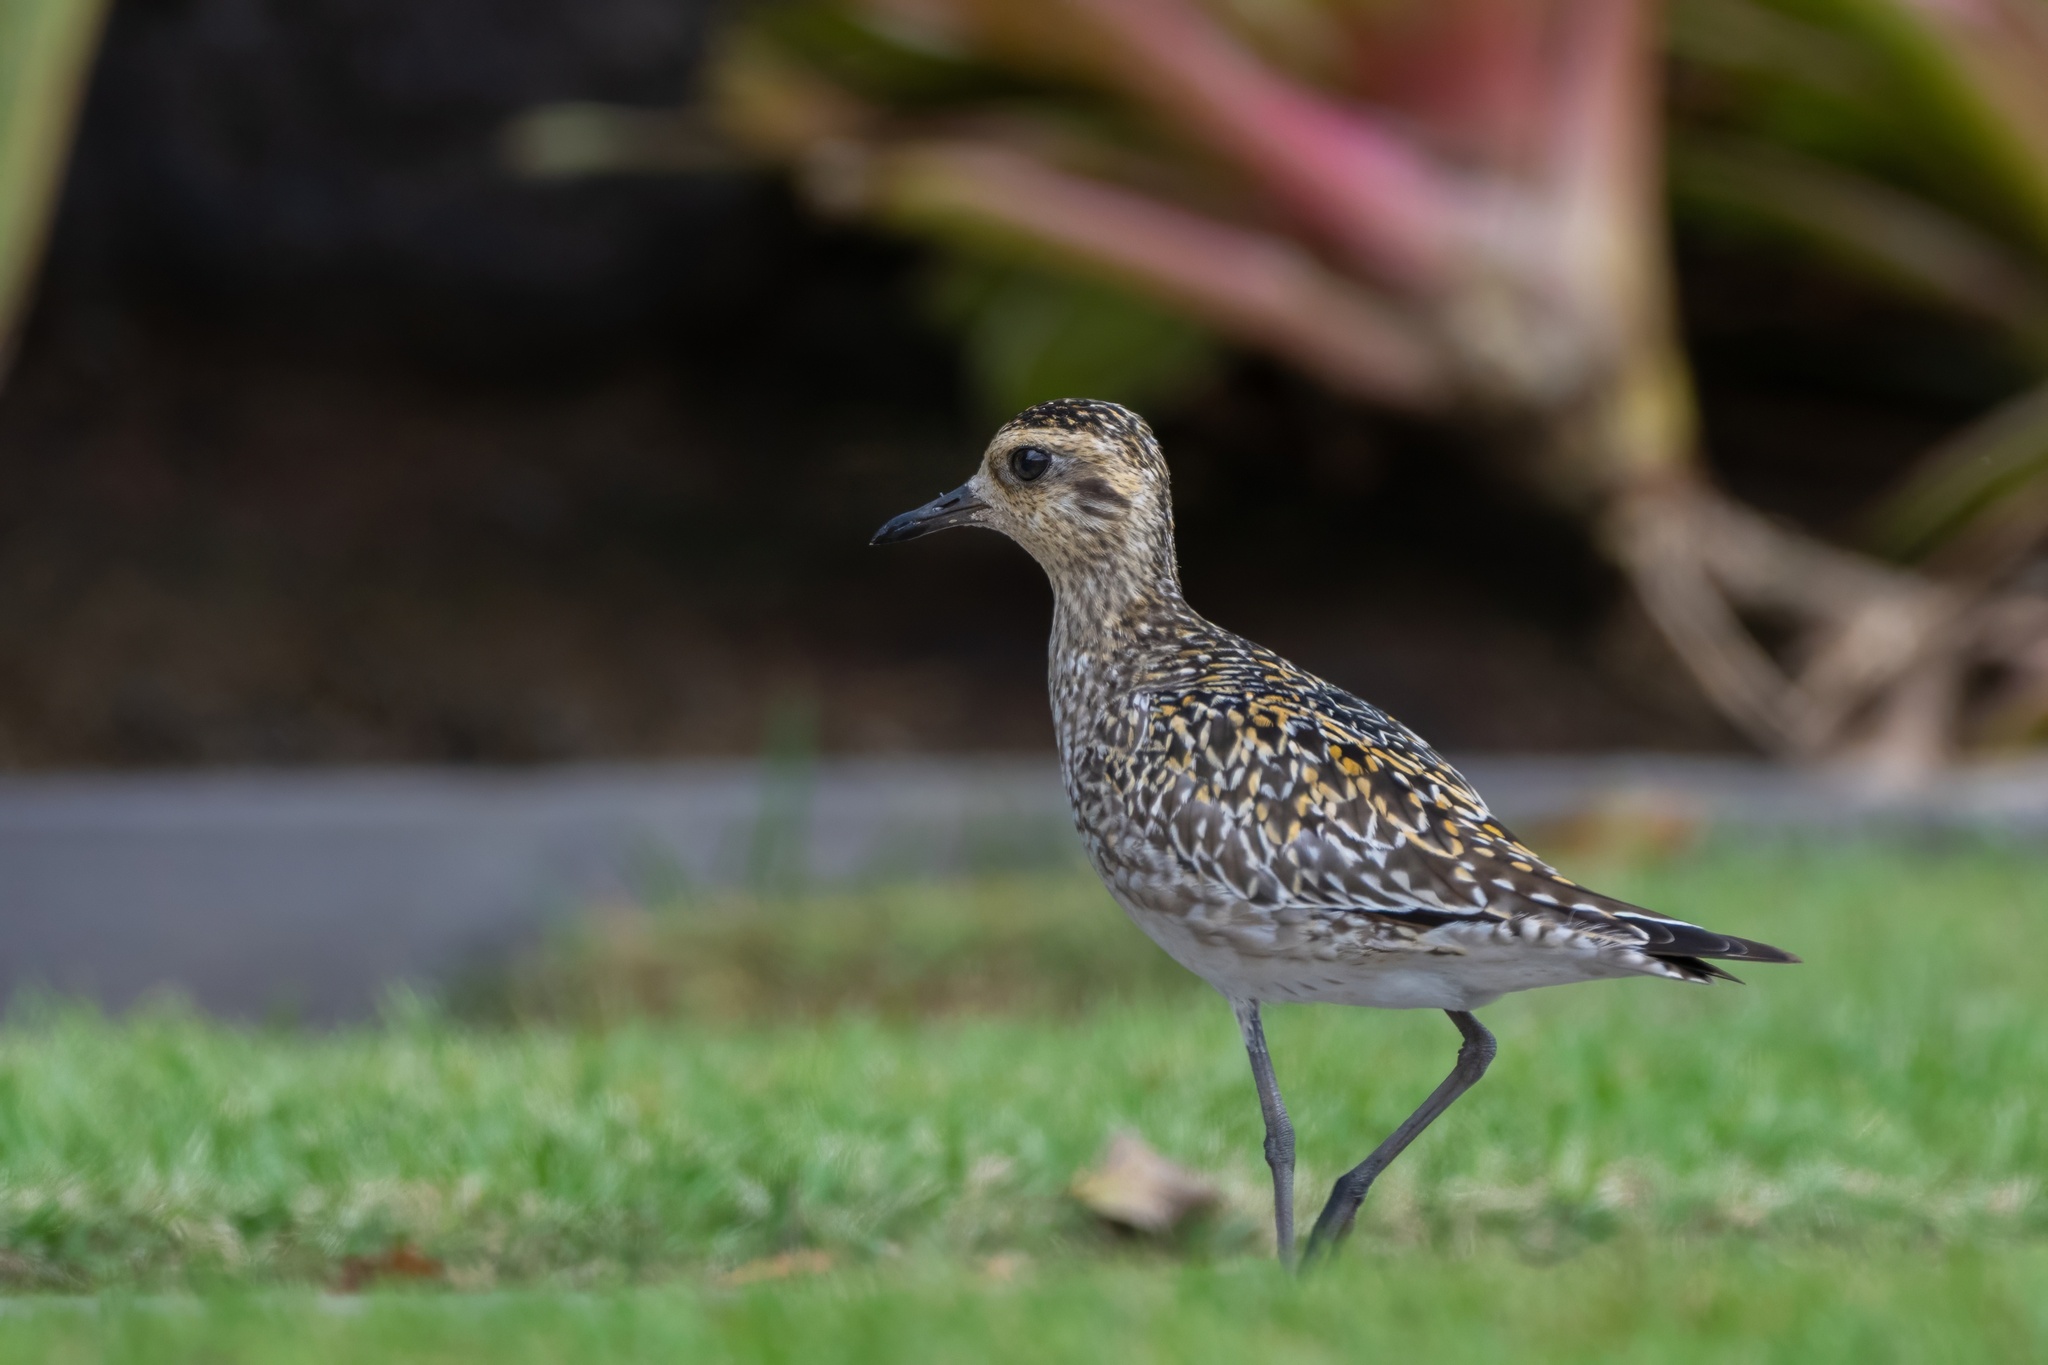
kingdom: Animalia
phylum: Chordata
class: Aves
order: Charadriiformes
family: Charadriidae
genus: Pluvialis
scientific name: Pluvialis fulva
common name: Pacific golden plover
